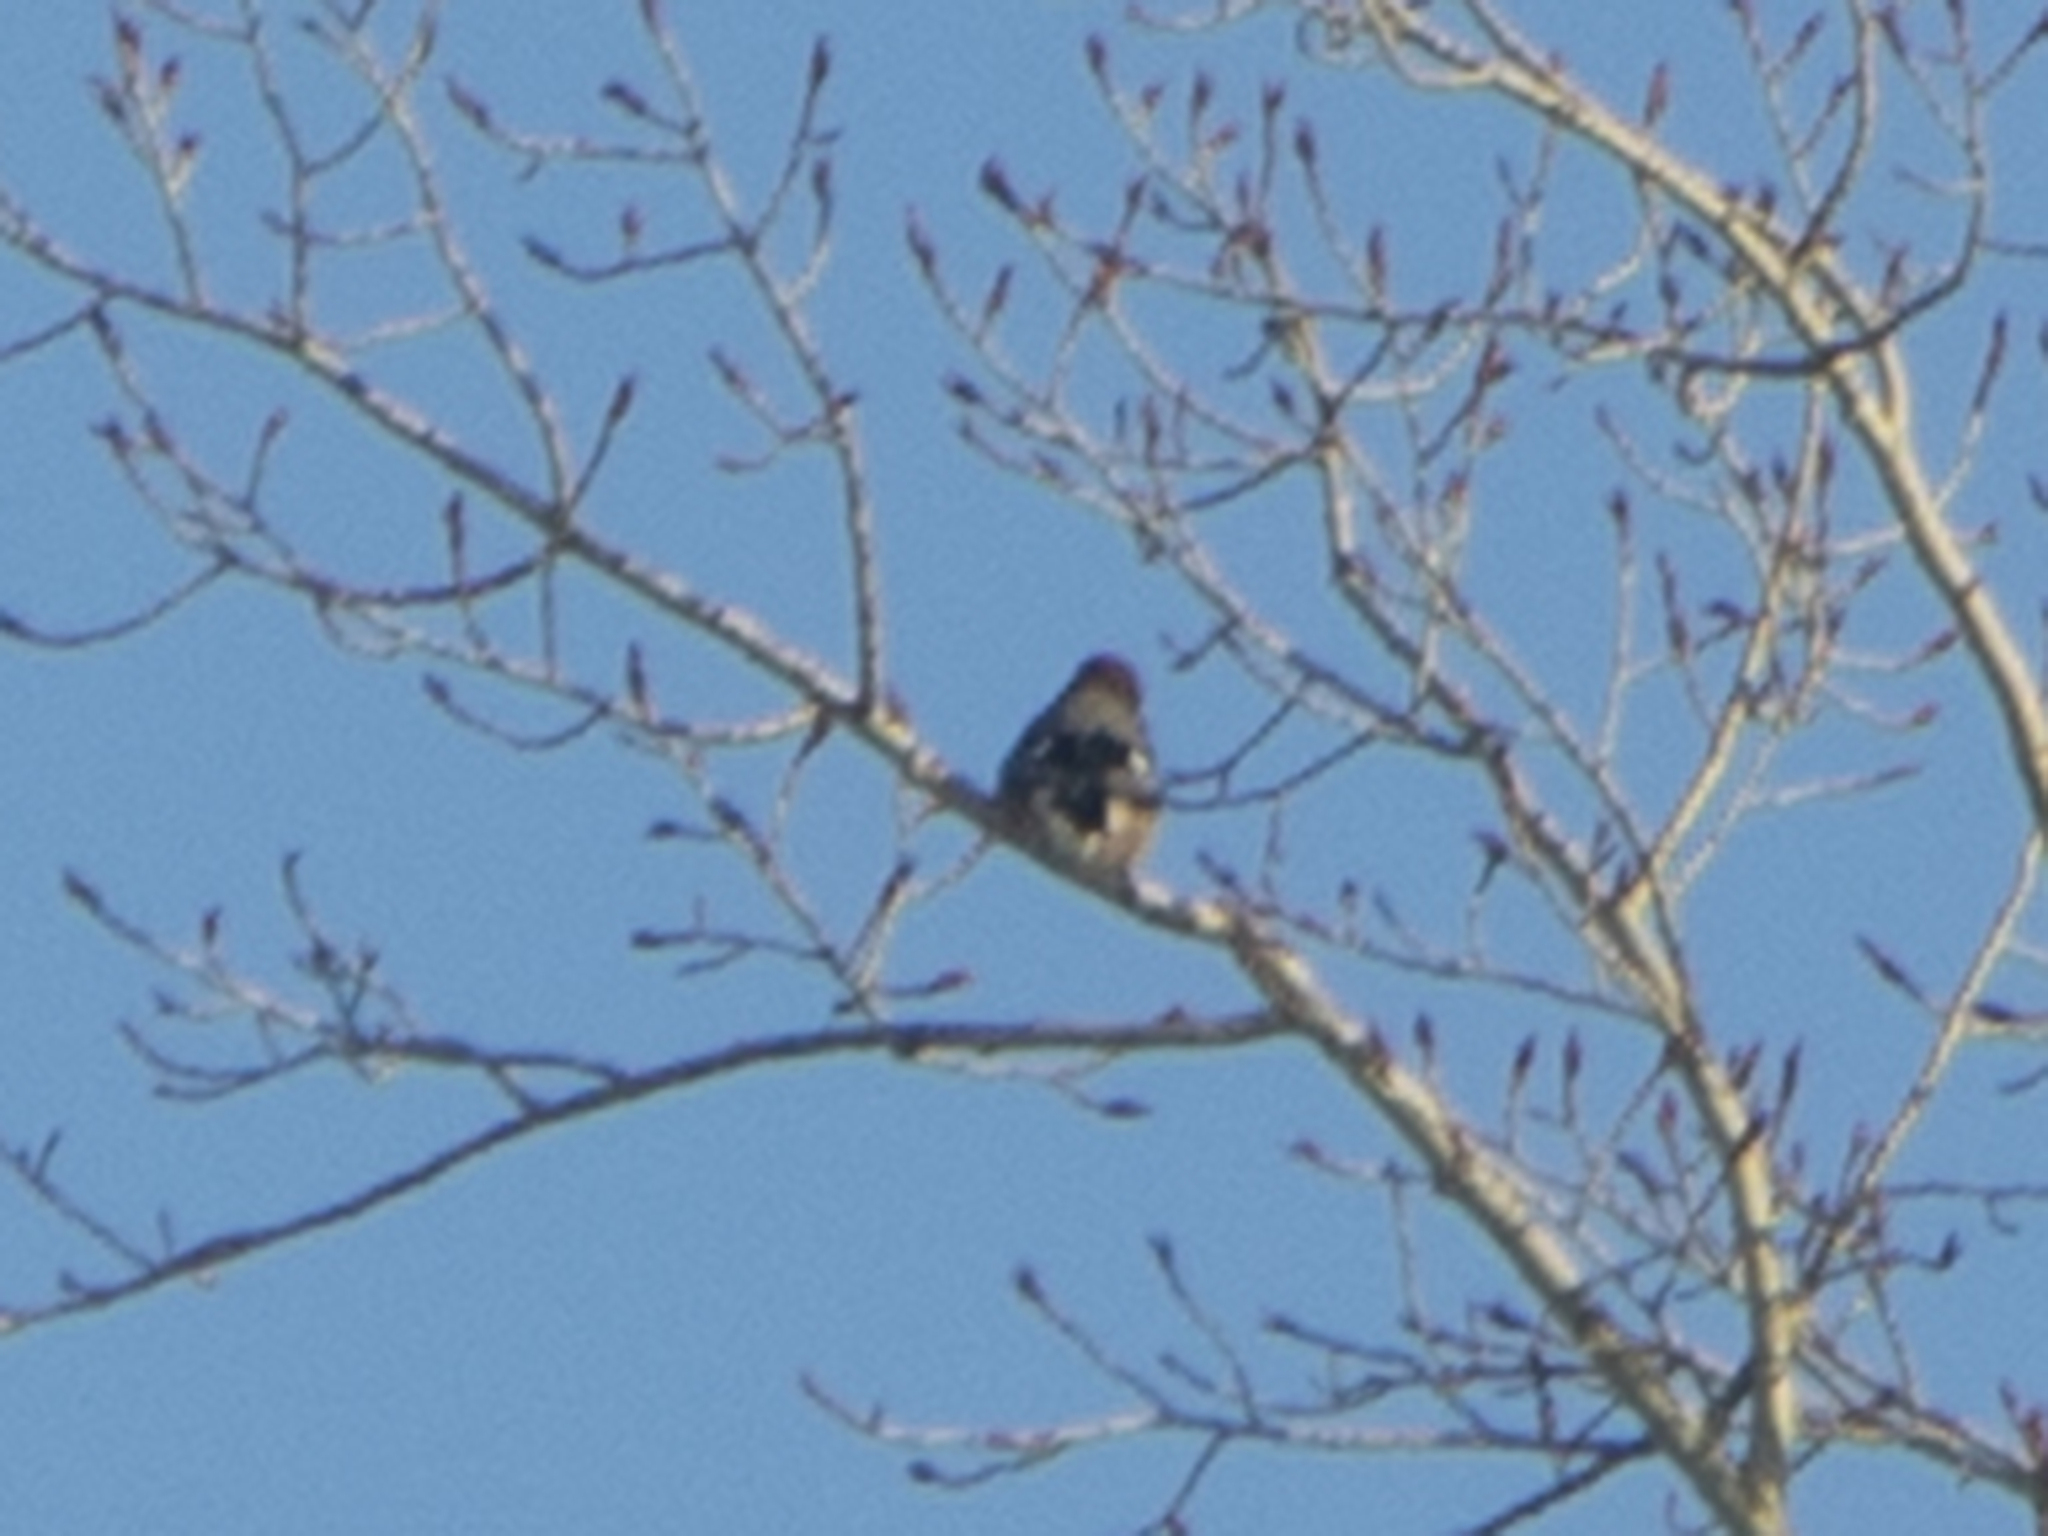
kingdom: Animalia
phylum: Chordata
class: Aves
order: Passeriformes
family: Corvidae
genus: Garrulus
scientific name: Garrulus glandarius
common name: Eurasian jay
